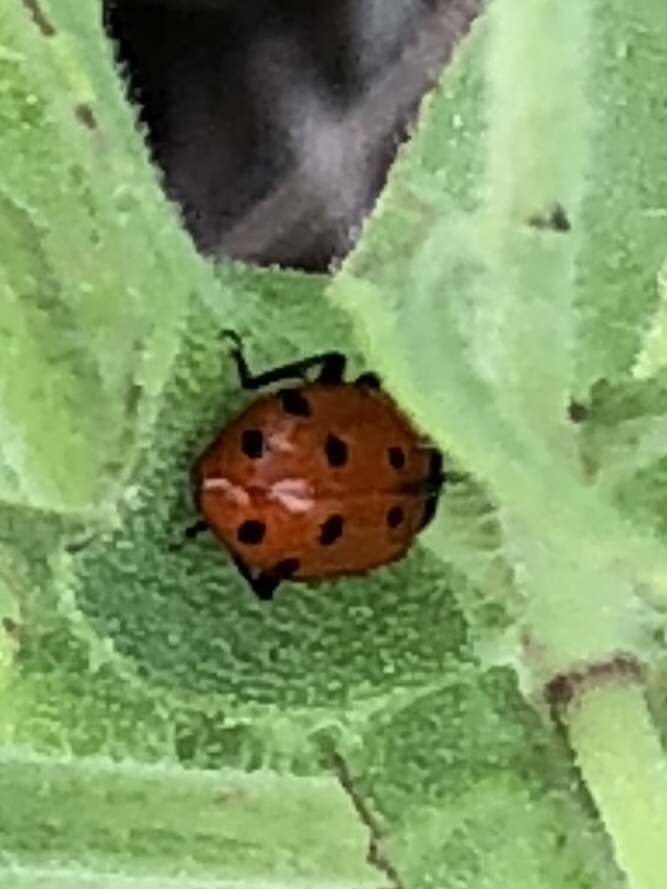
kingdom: Animalia
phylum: Arthropoda
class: Insecta
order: Coleoptera
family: Coccinellidae
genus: Hippodamia
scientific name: Hippodamia convergens
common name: Convergent lady beetle
